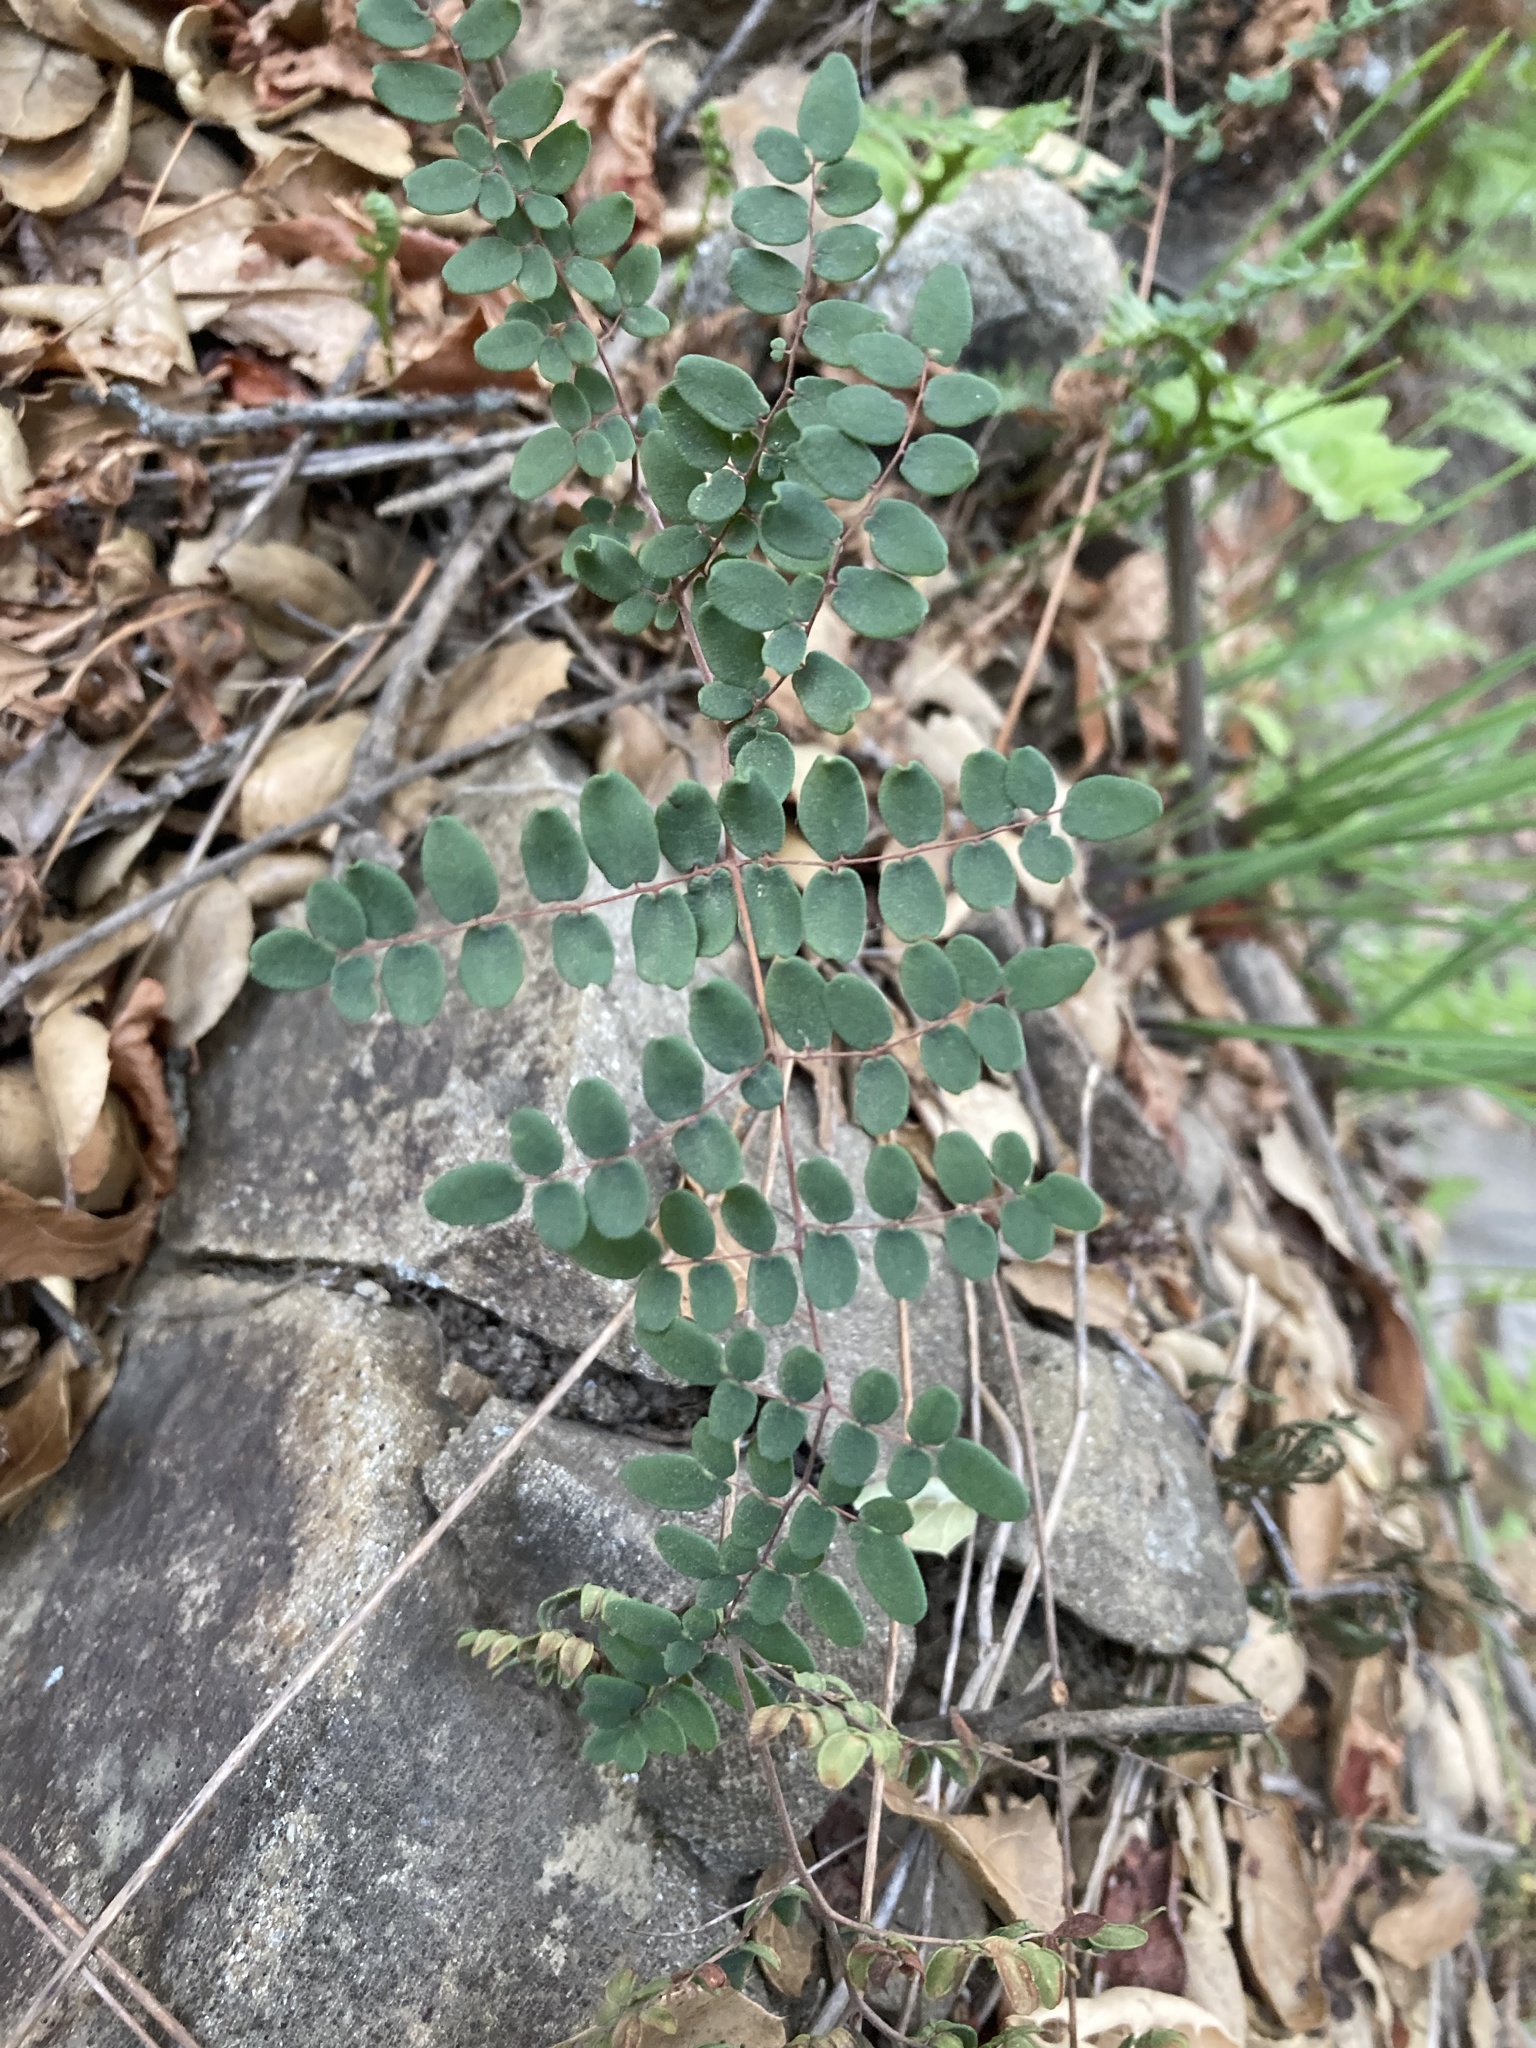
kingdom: Plantae
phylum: Tracheophyta
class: Polypodiopsida
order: Polypodiales
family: Pteridaceae
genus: Pellaea
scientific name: Pellaea andromedifolia
